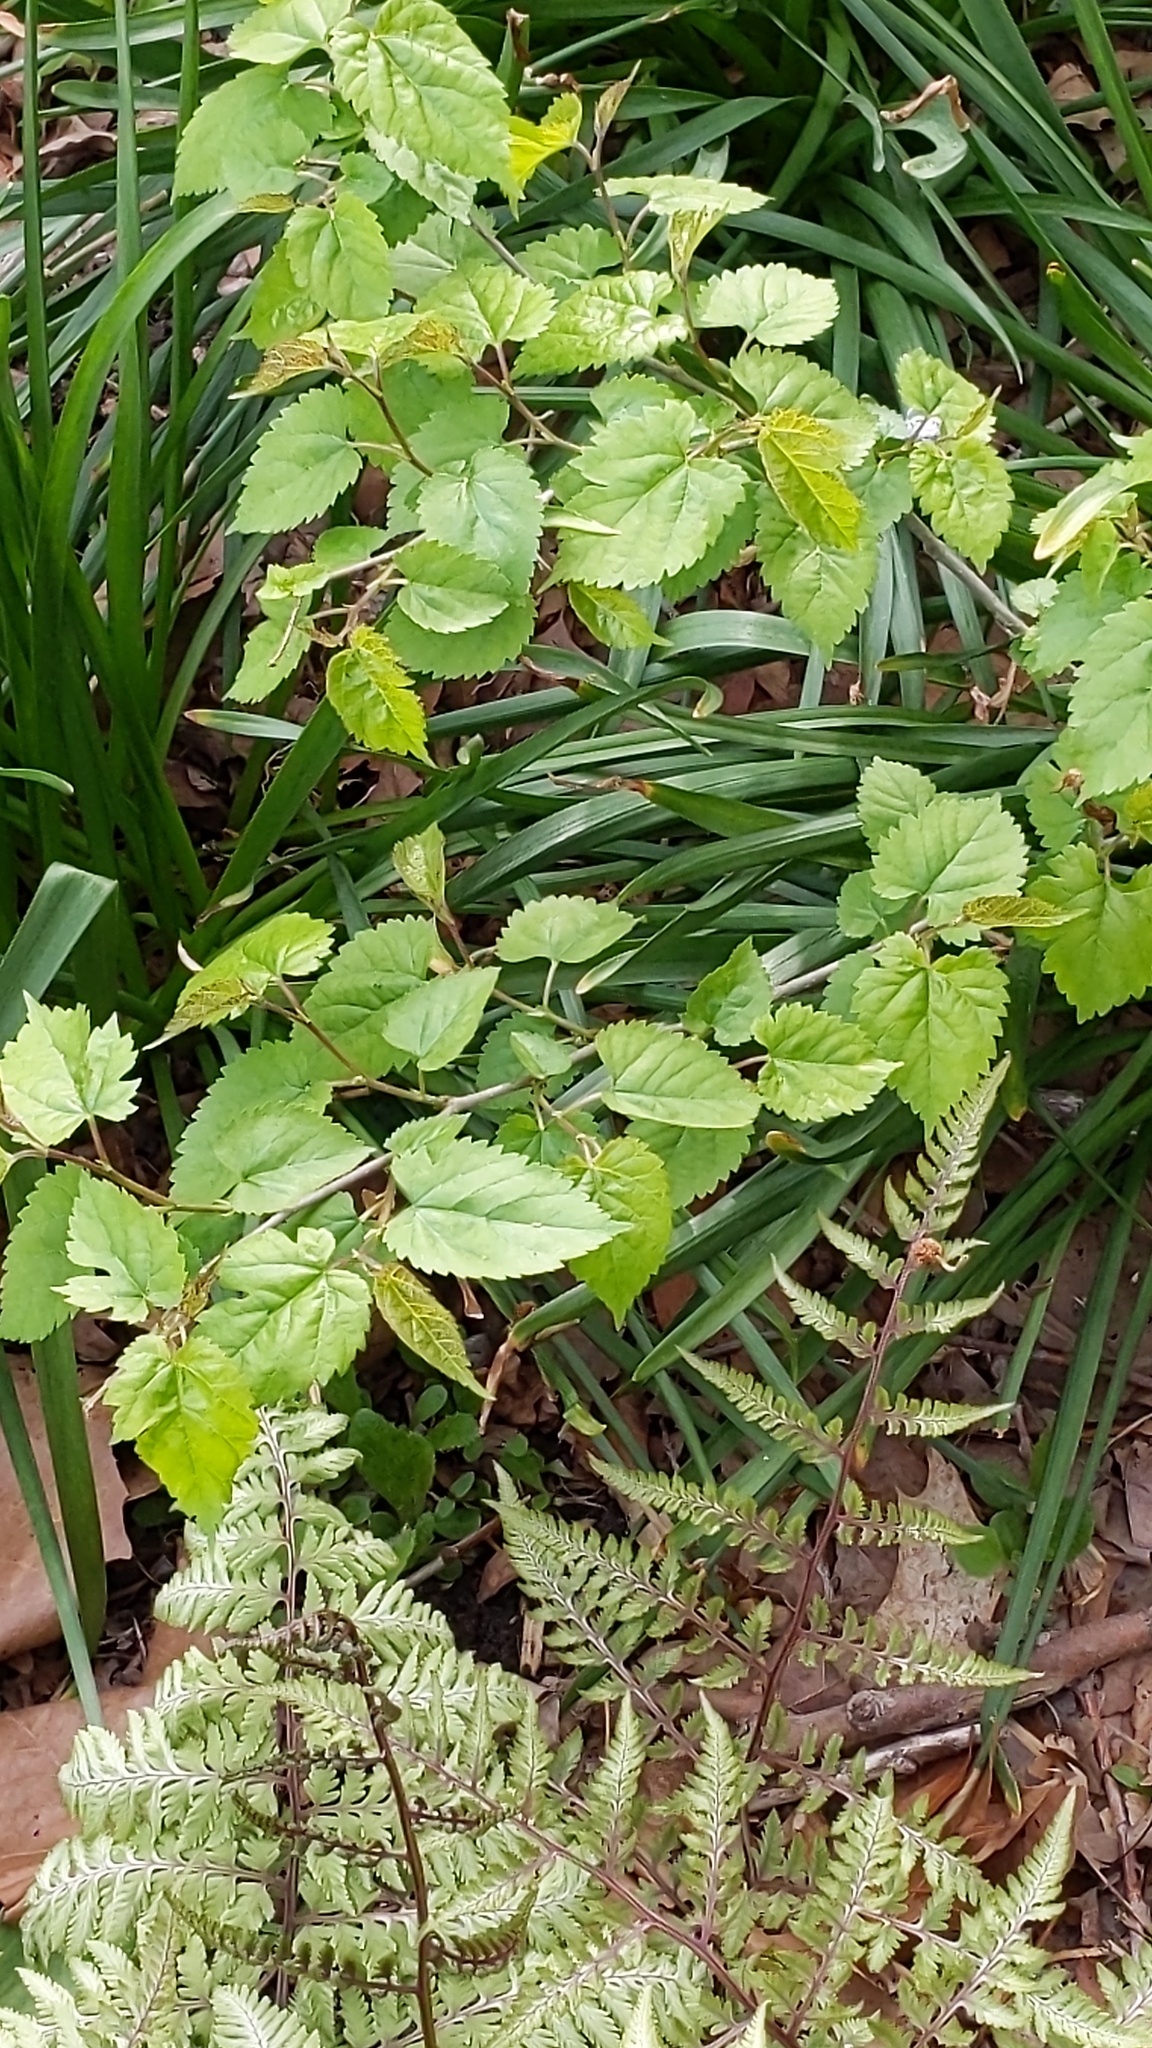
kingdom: Plantae
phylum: Tracheophyta
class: Magnoliopsida
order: Rosales
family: Moraceae
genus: Morus
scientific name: Morus alba
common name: White mulberry
